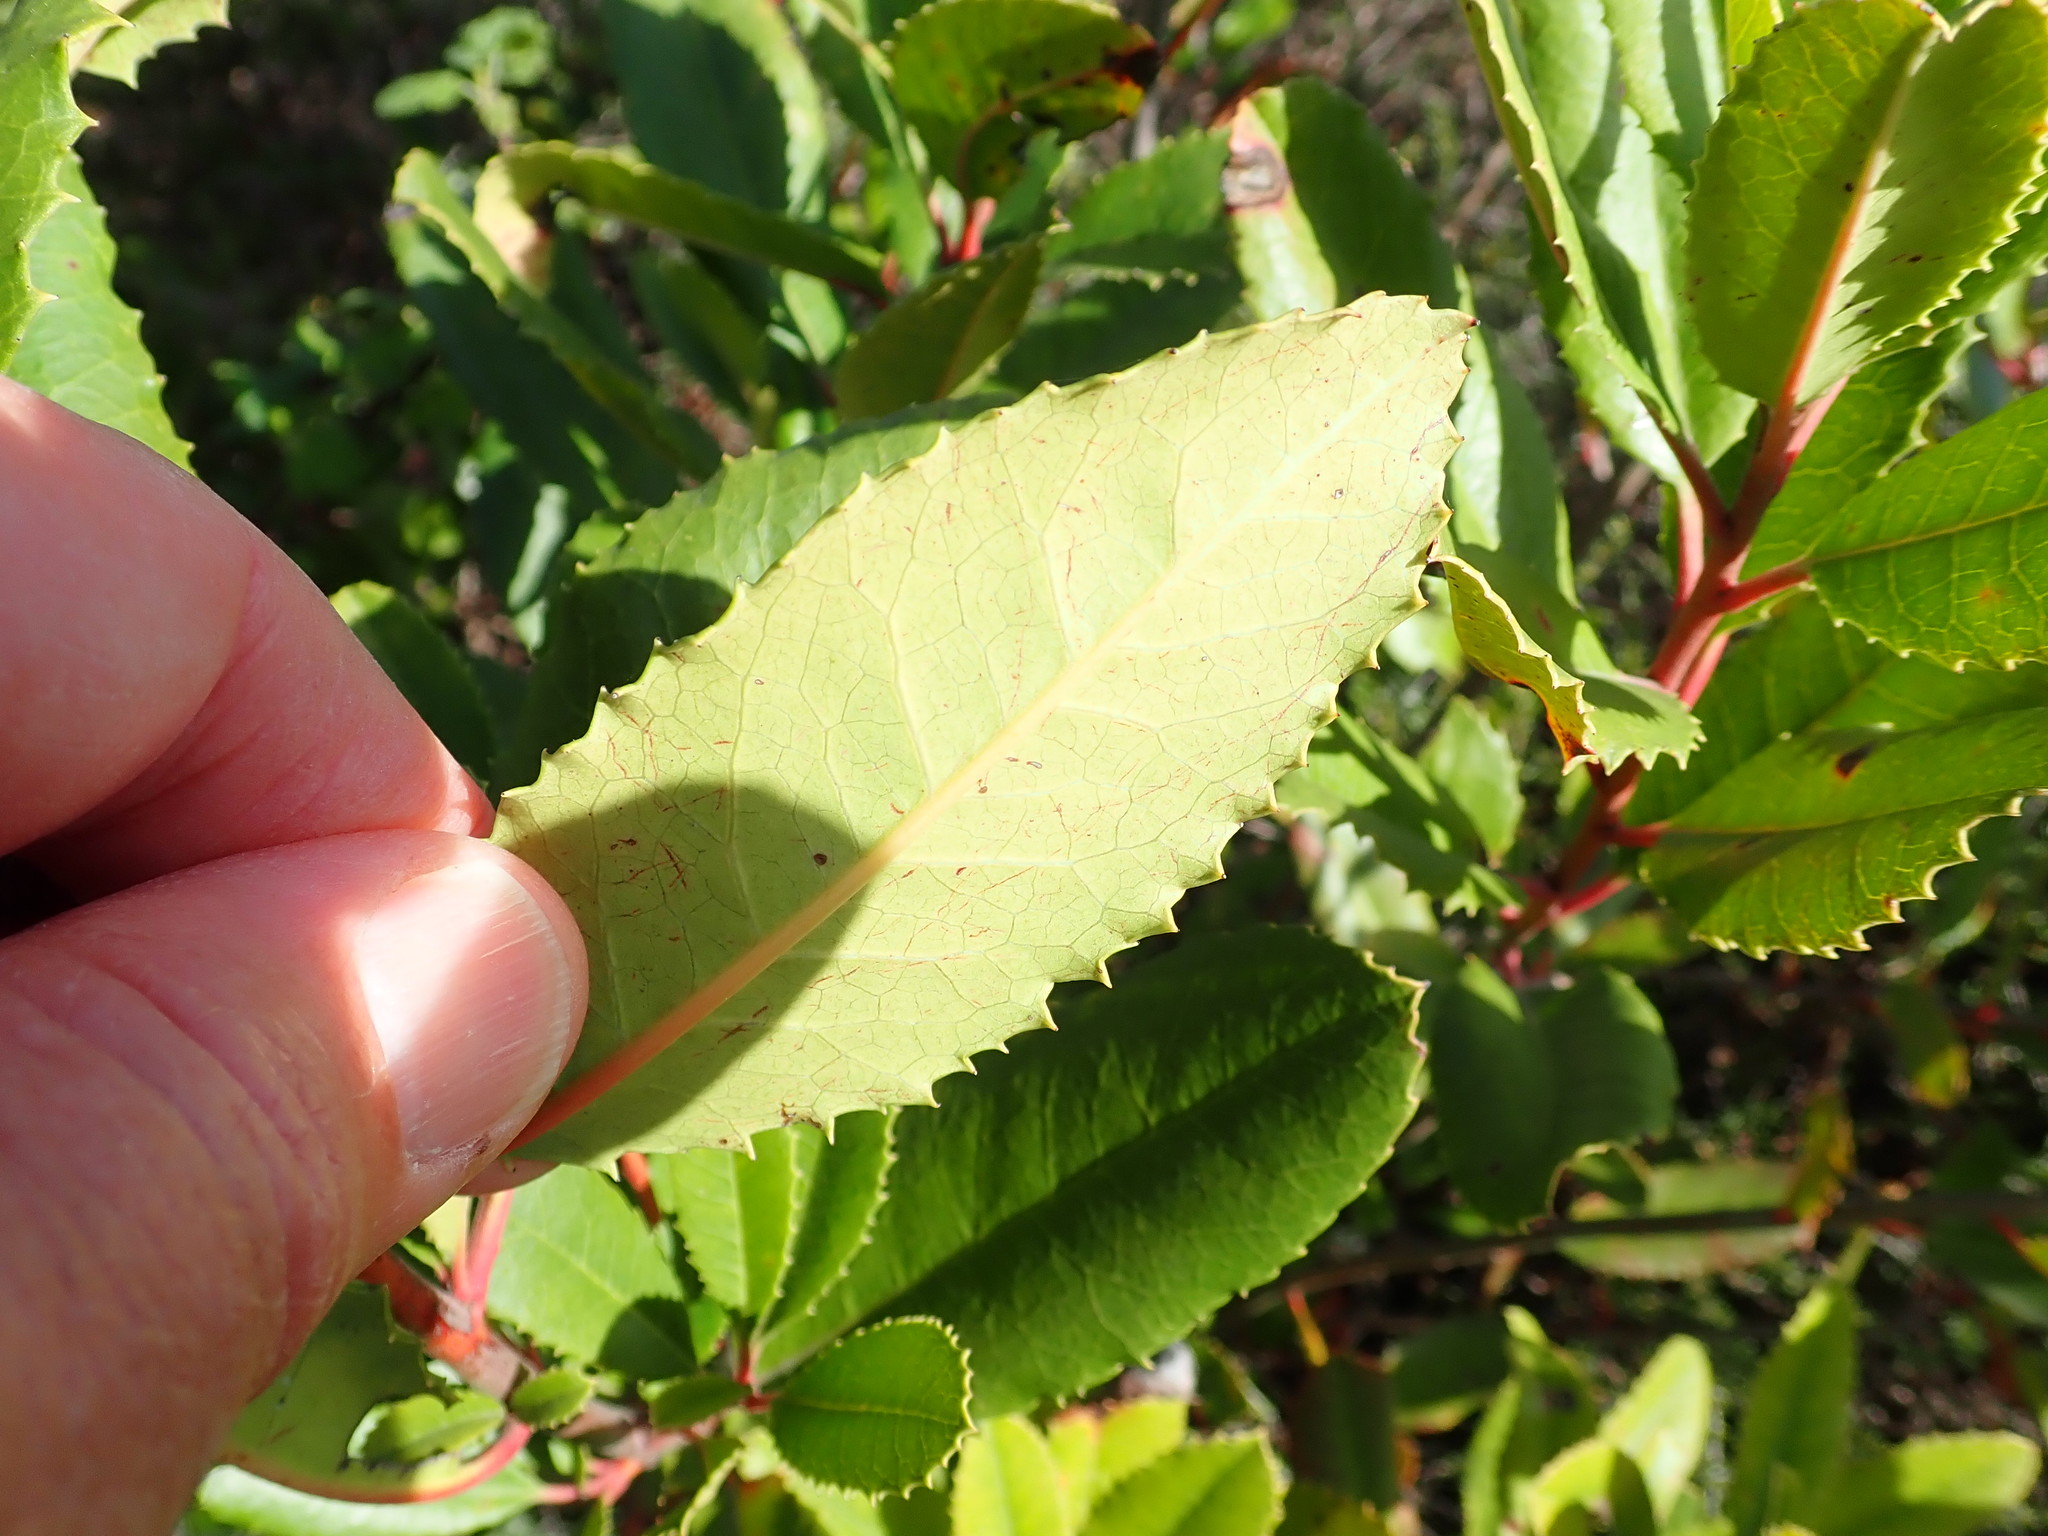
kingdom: Plantae
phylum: Tracheophyta
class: Magnoliopsida
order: Rosales
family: Rosaceae
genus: Heteromeles
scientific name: Heteromeles arbutifolia
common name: California-holly
